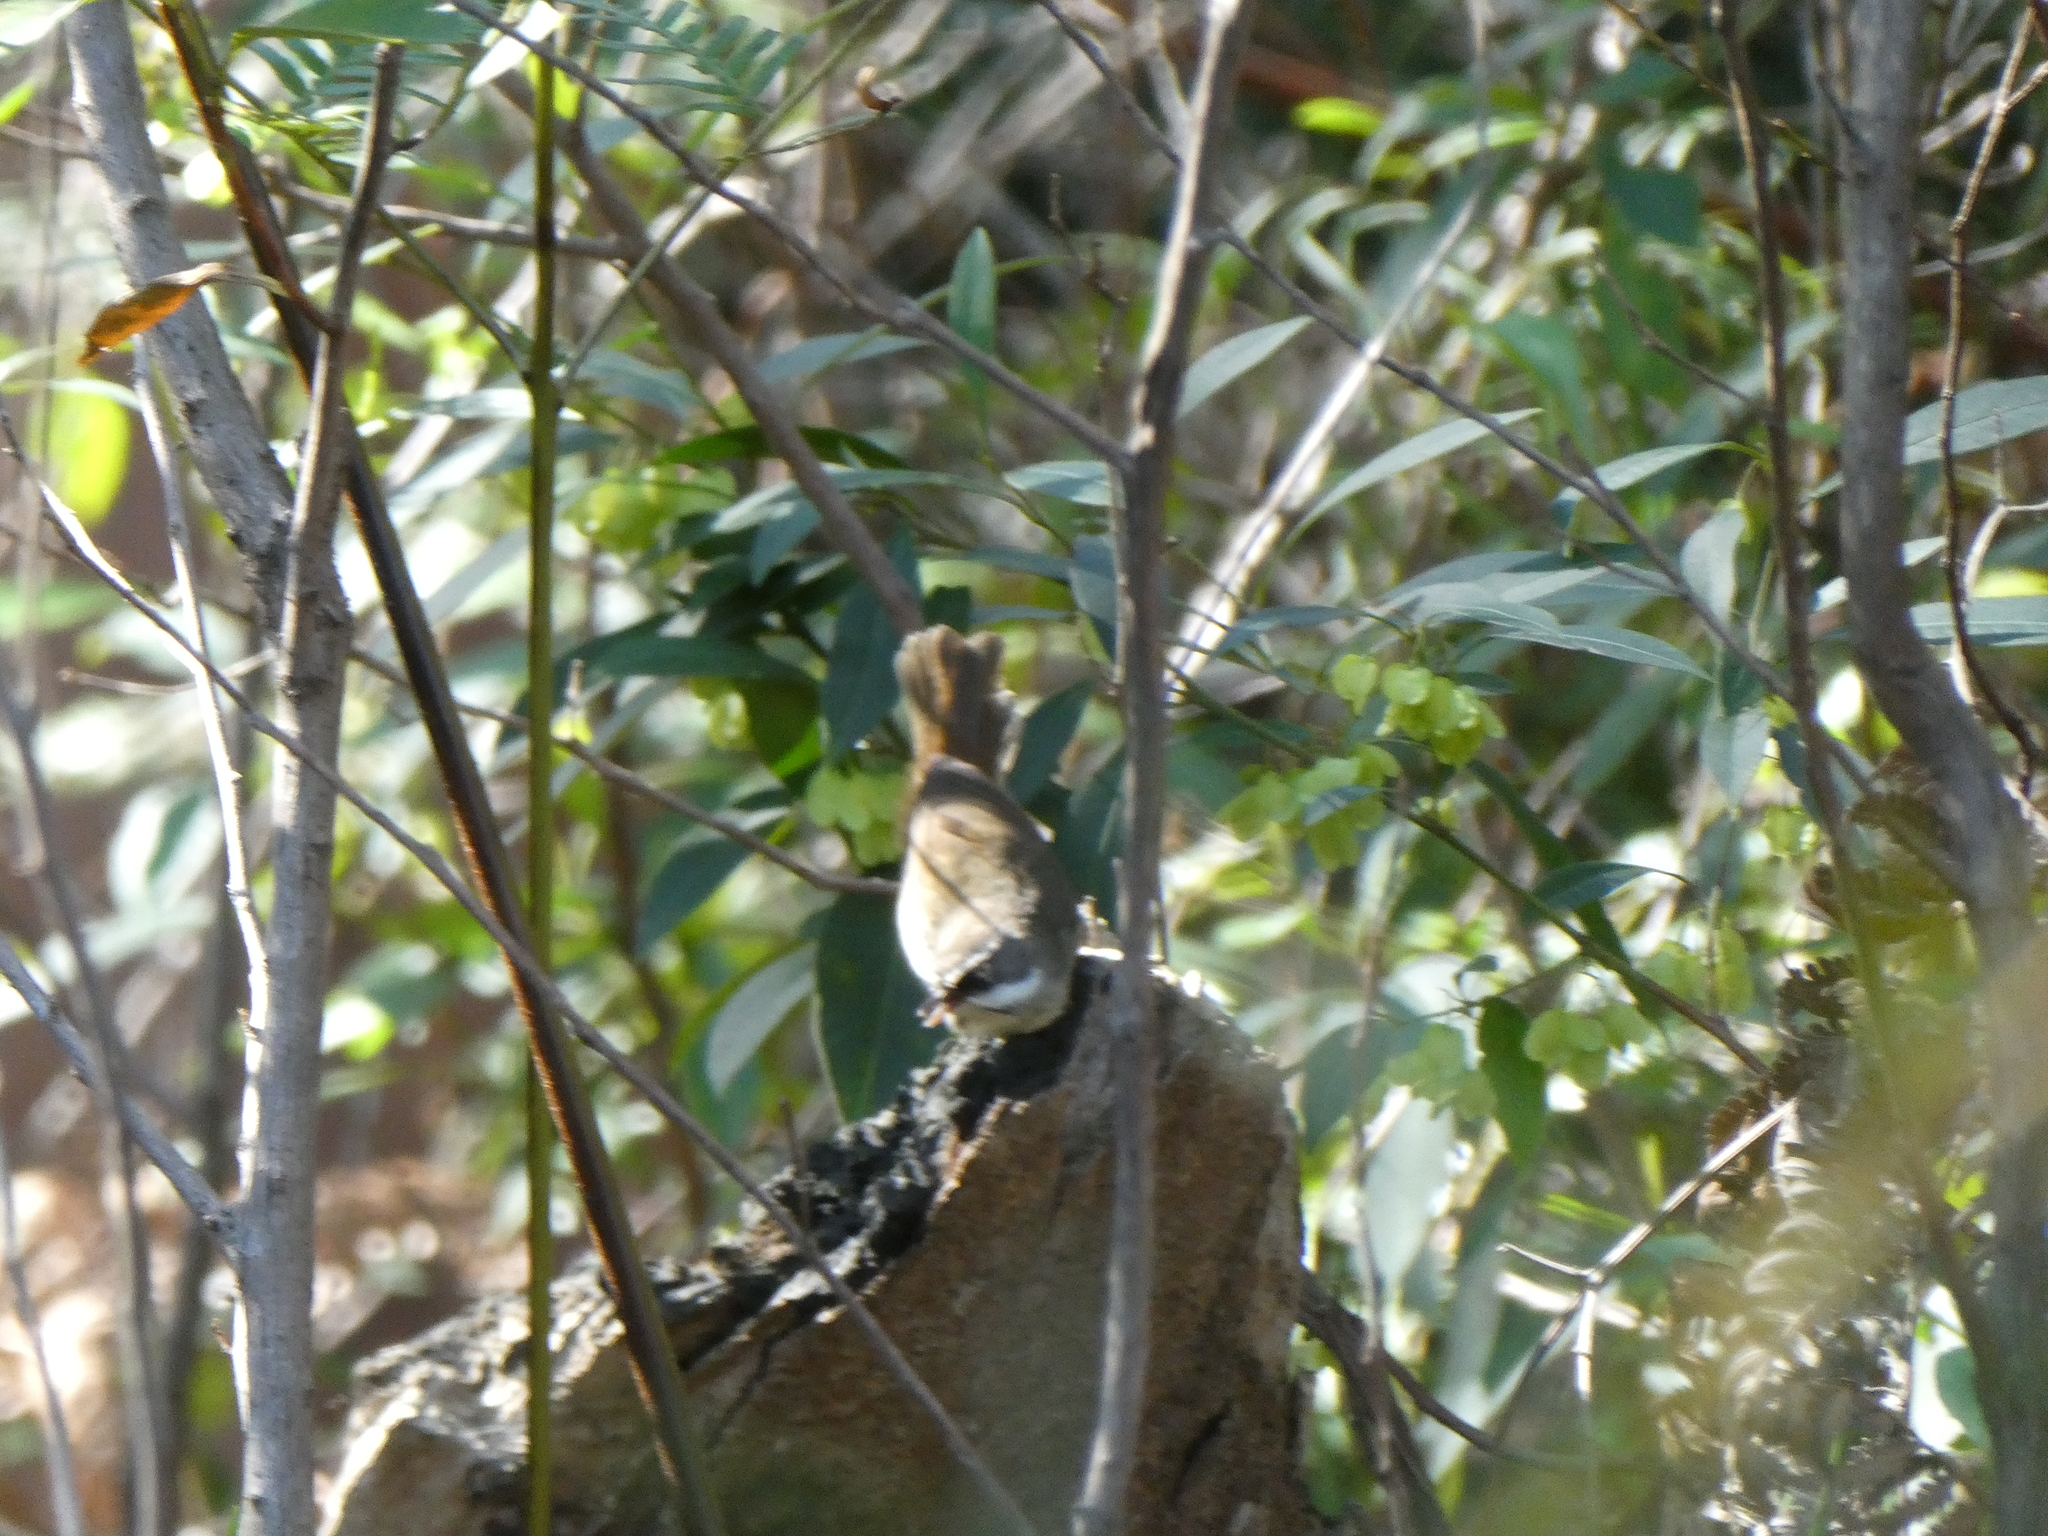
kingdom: Animalia
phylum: Chordata
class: Aves
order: Passeriformes
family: Acanthizidae
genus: Sericornis
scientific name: Sericornis frontalis
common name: White-browed scrubwren
